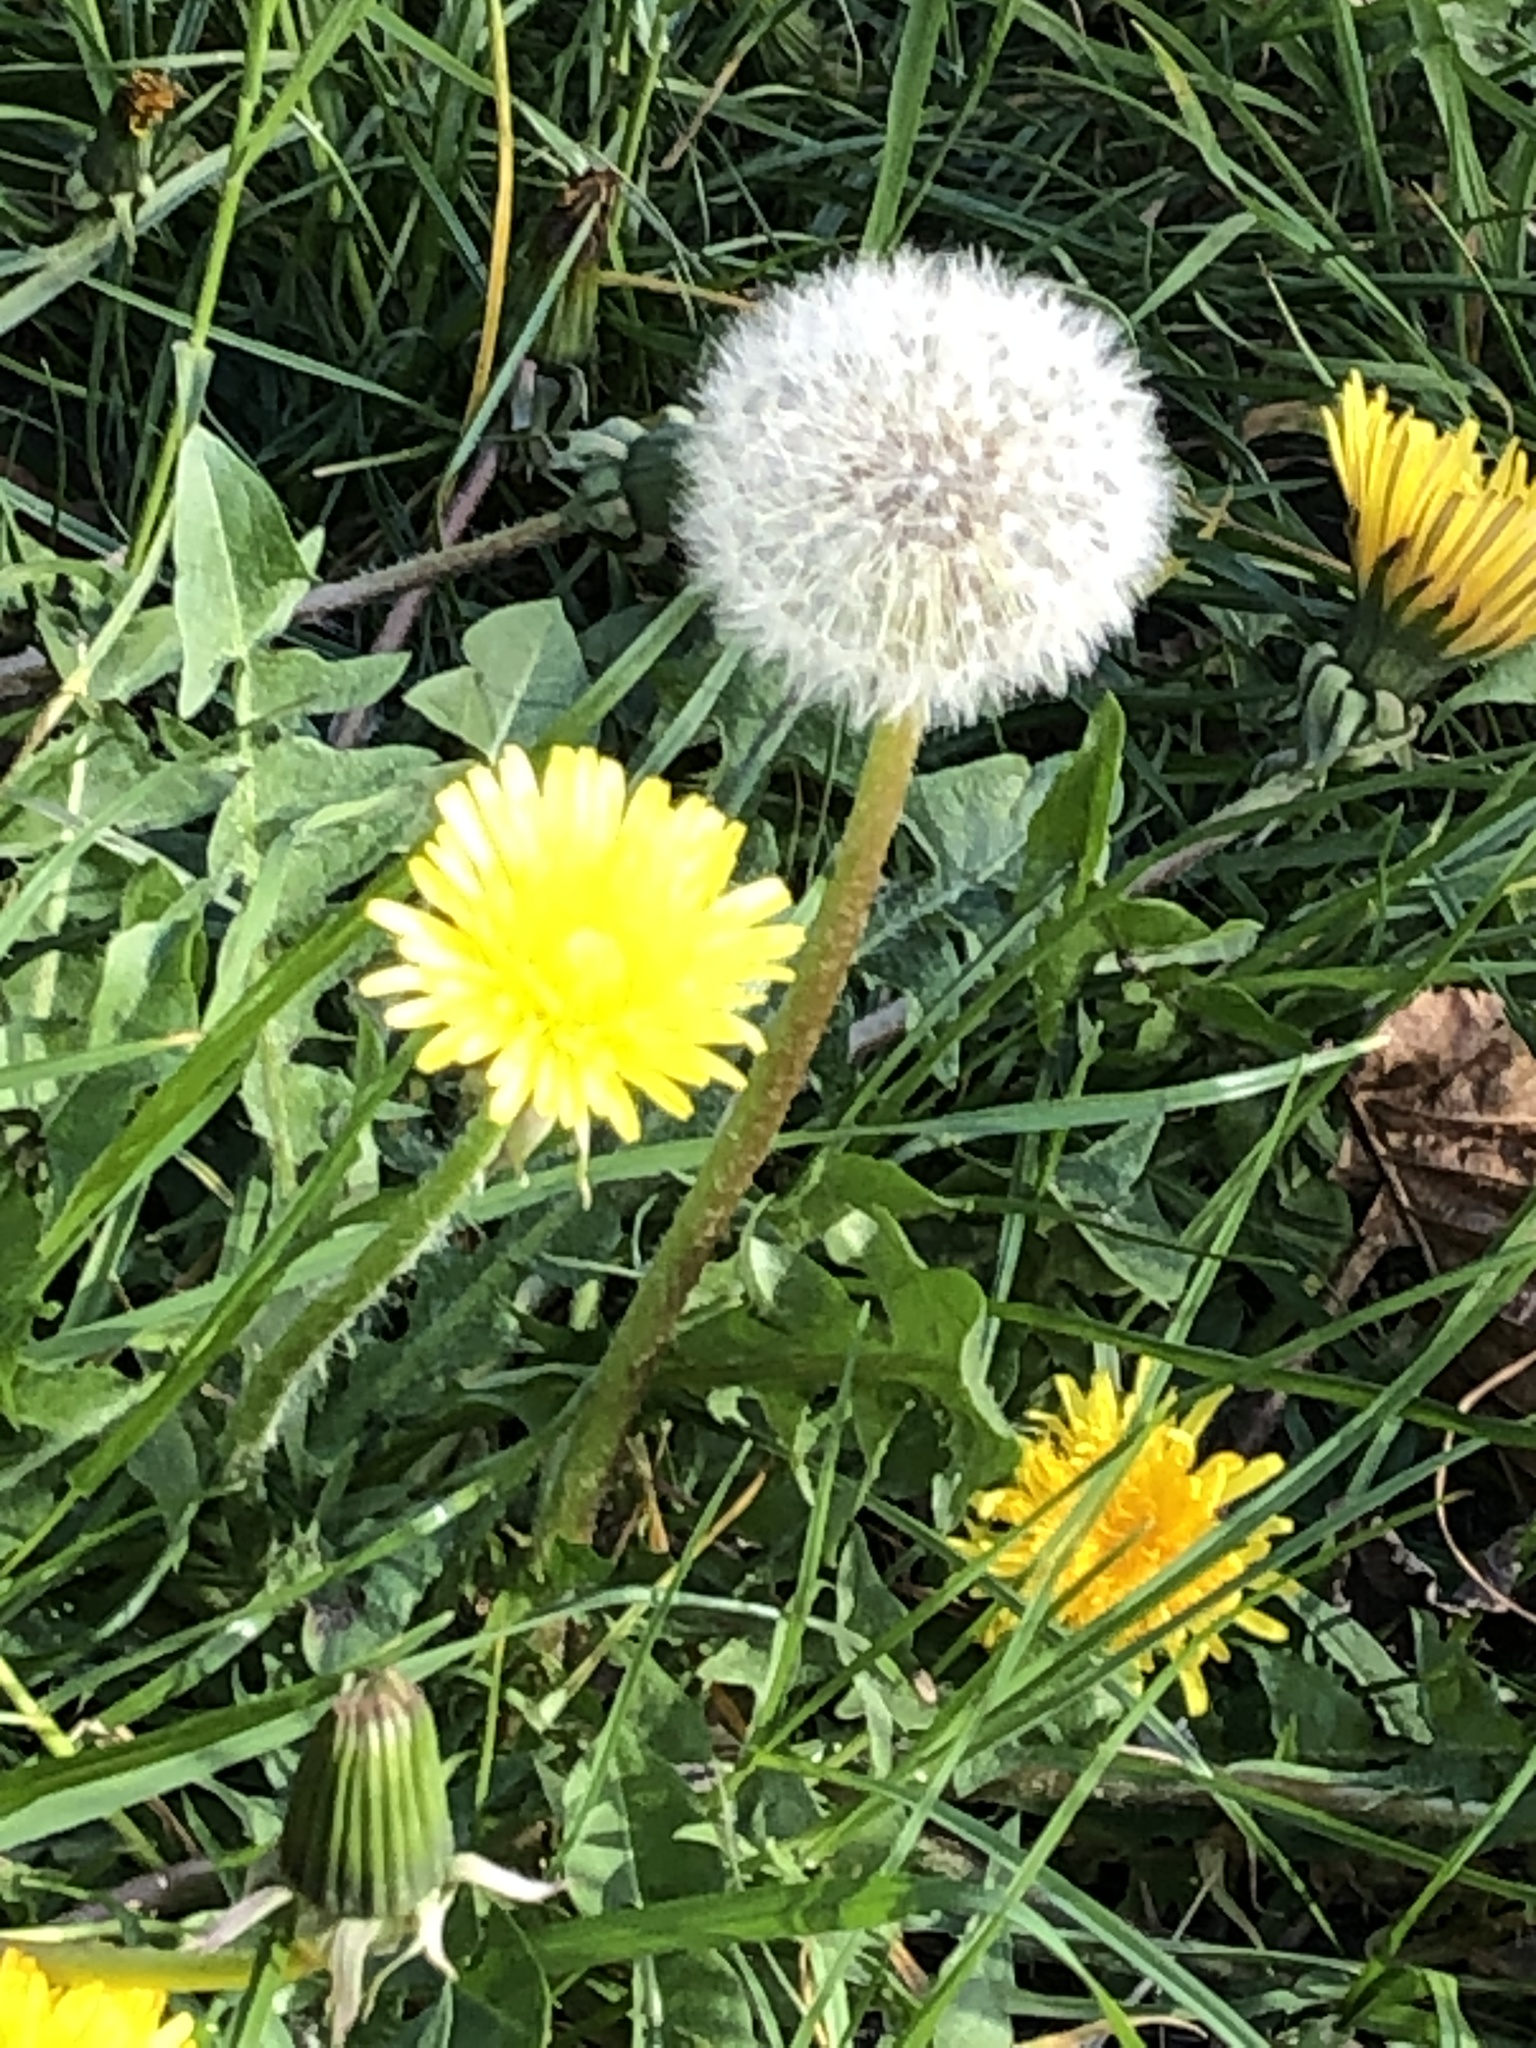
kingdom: Plantae
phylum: Tracheophyta
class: Magnoliopsida
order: Asterales
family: Asteraceae
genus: Taraxacum
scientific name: Taraxacum officinale
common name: Common dandelion
